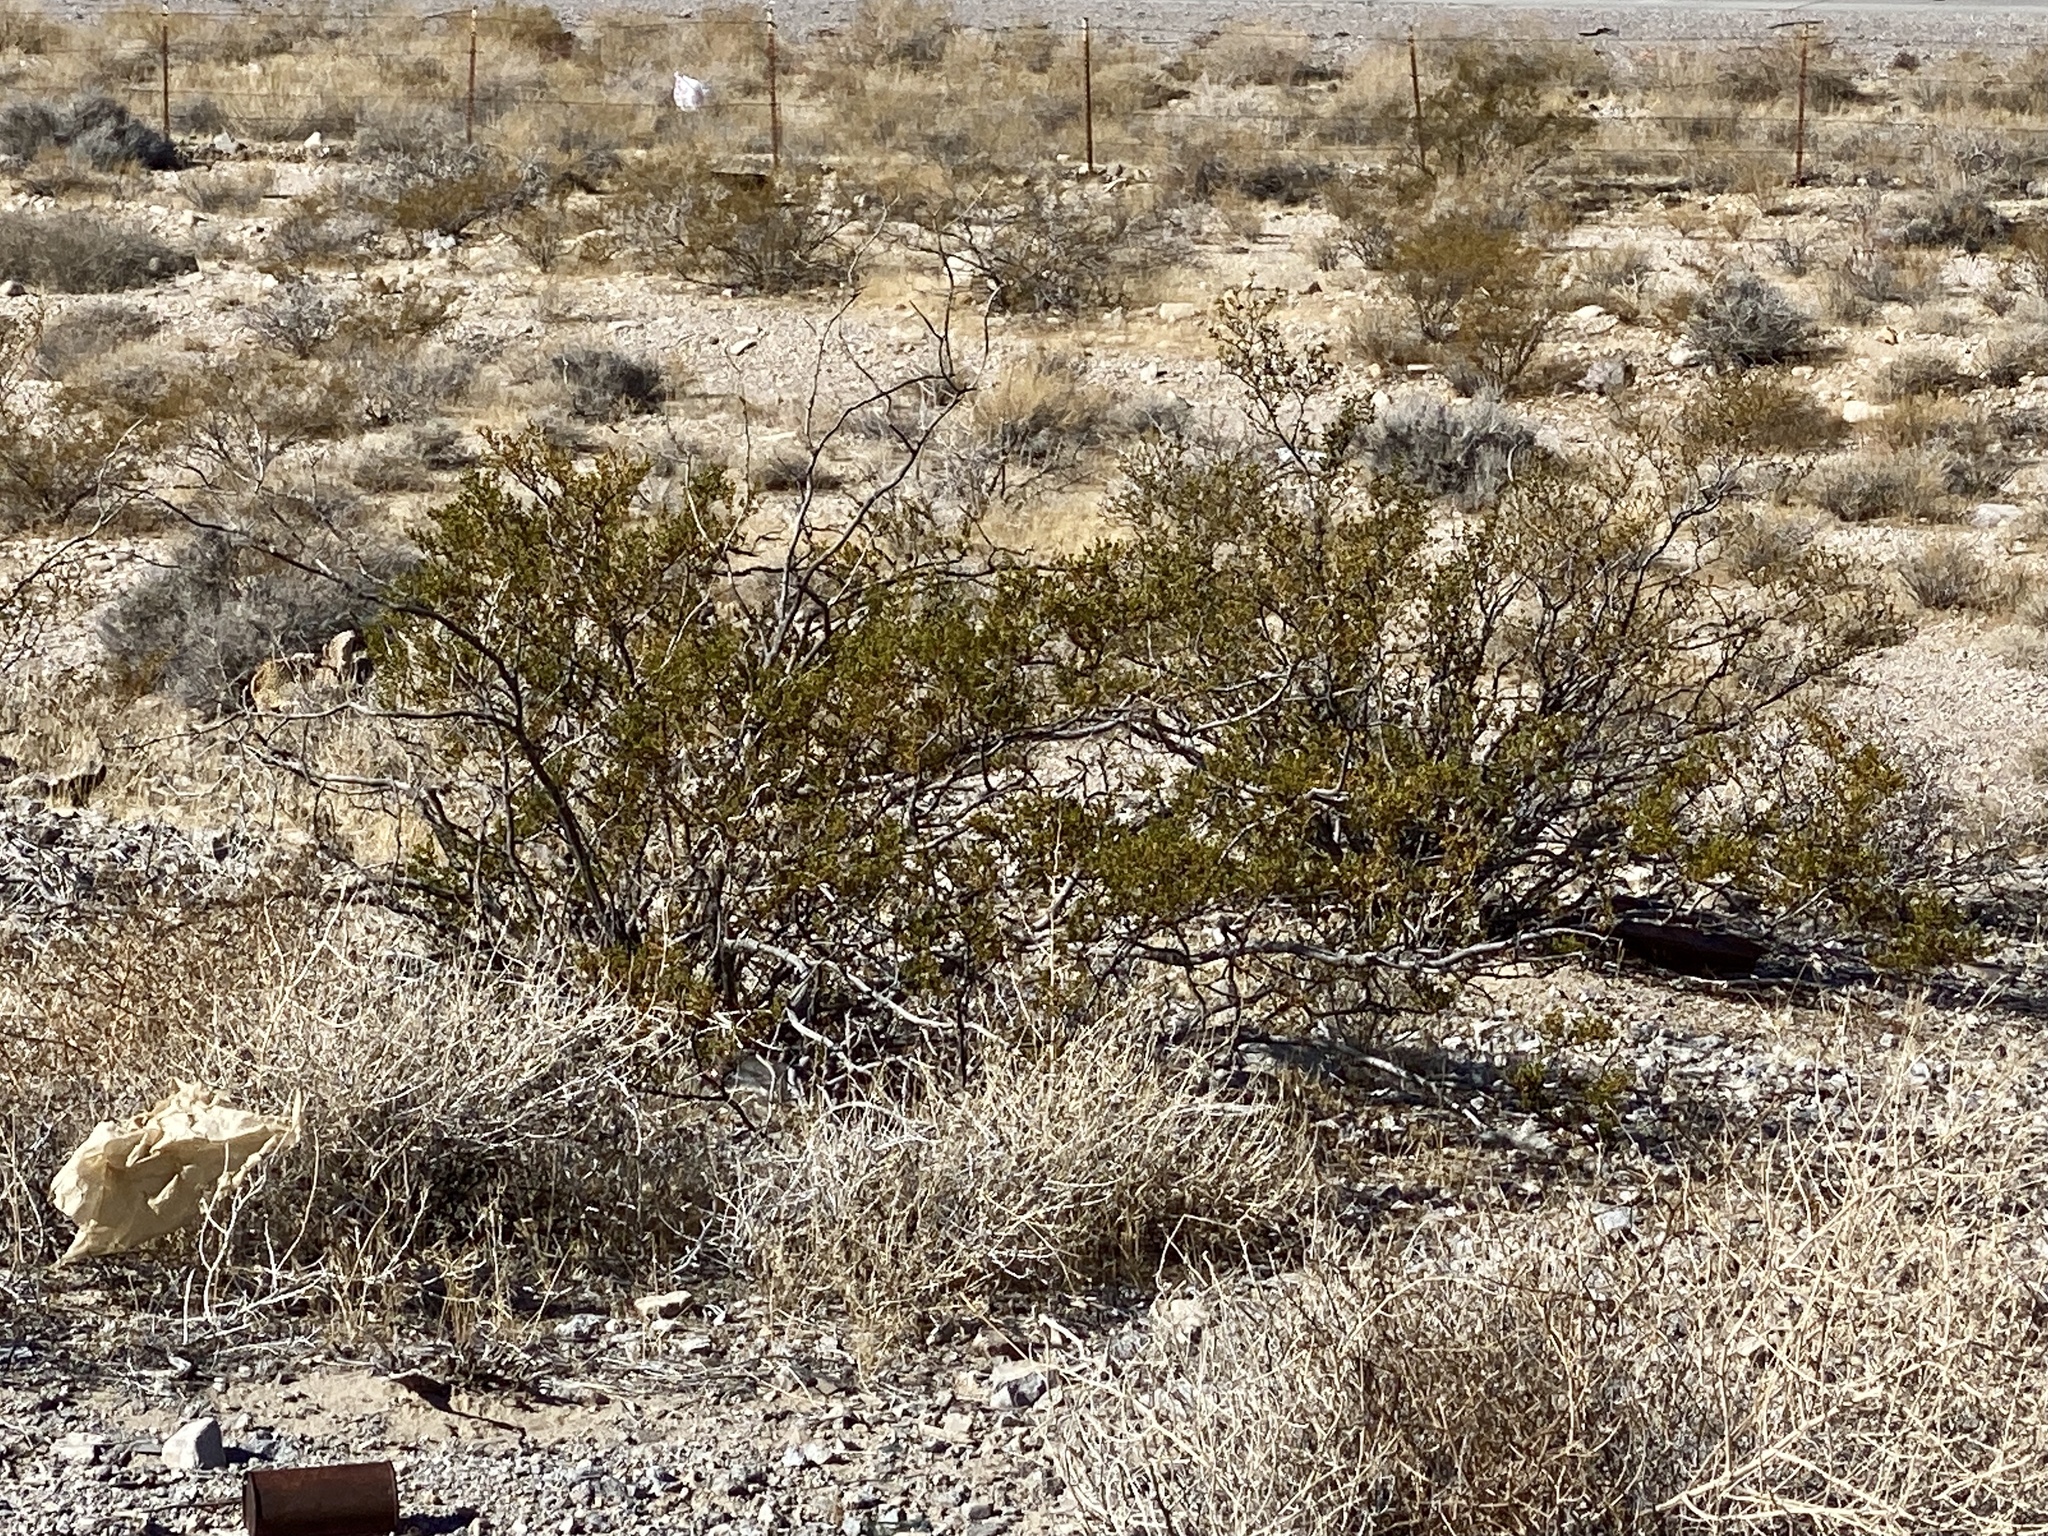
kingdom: Plantae
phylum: Tracheophyta
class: Magnoliopsida
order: Zygophyllales
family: Zygophyllaceae
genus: Larrea
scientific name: Larrea tridentata
